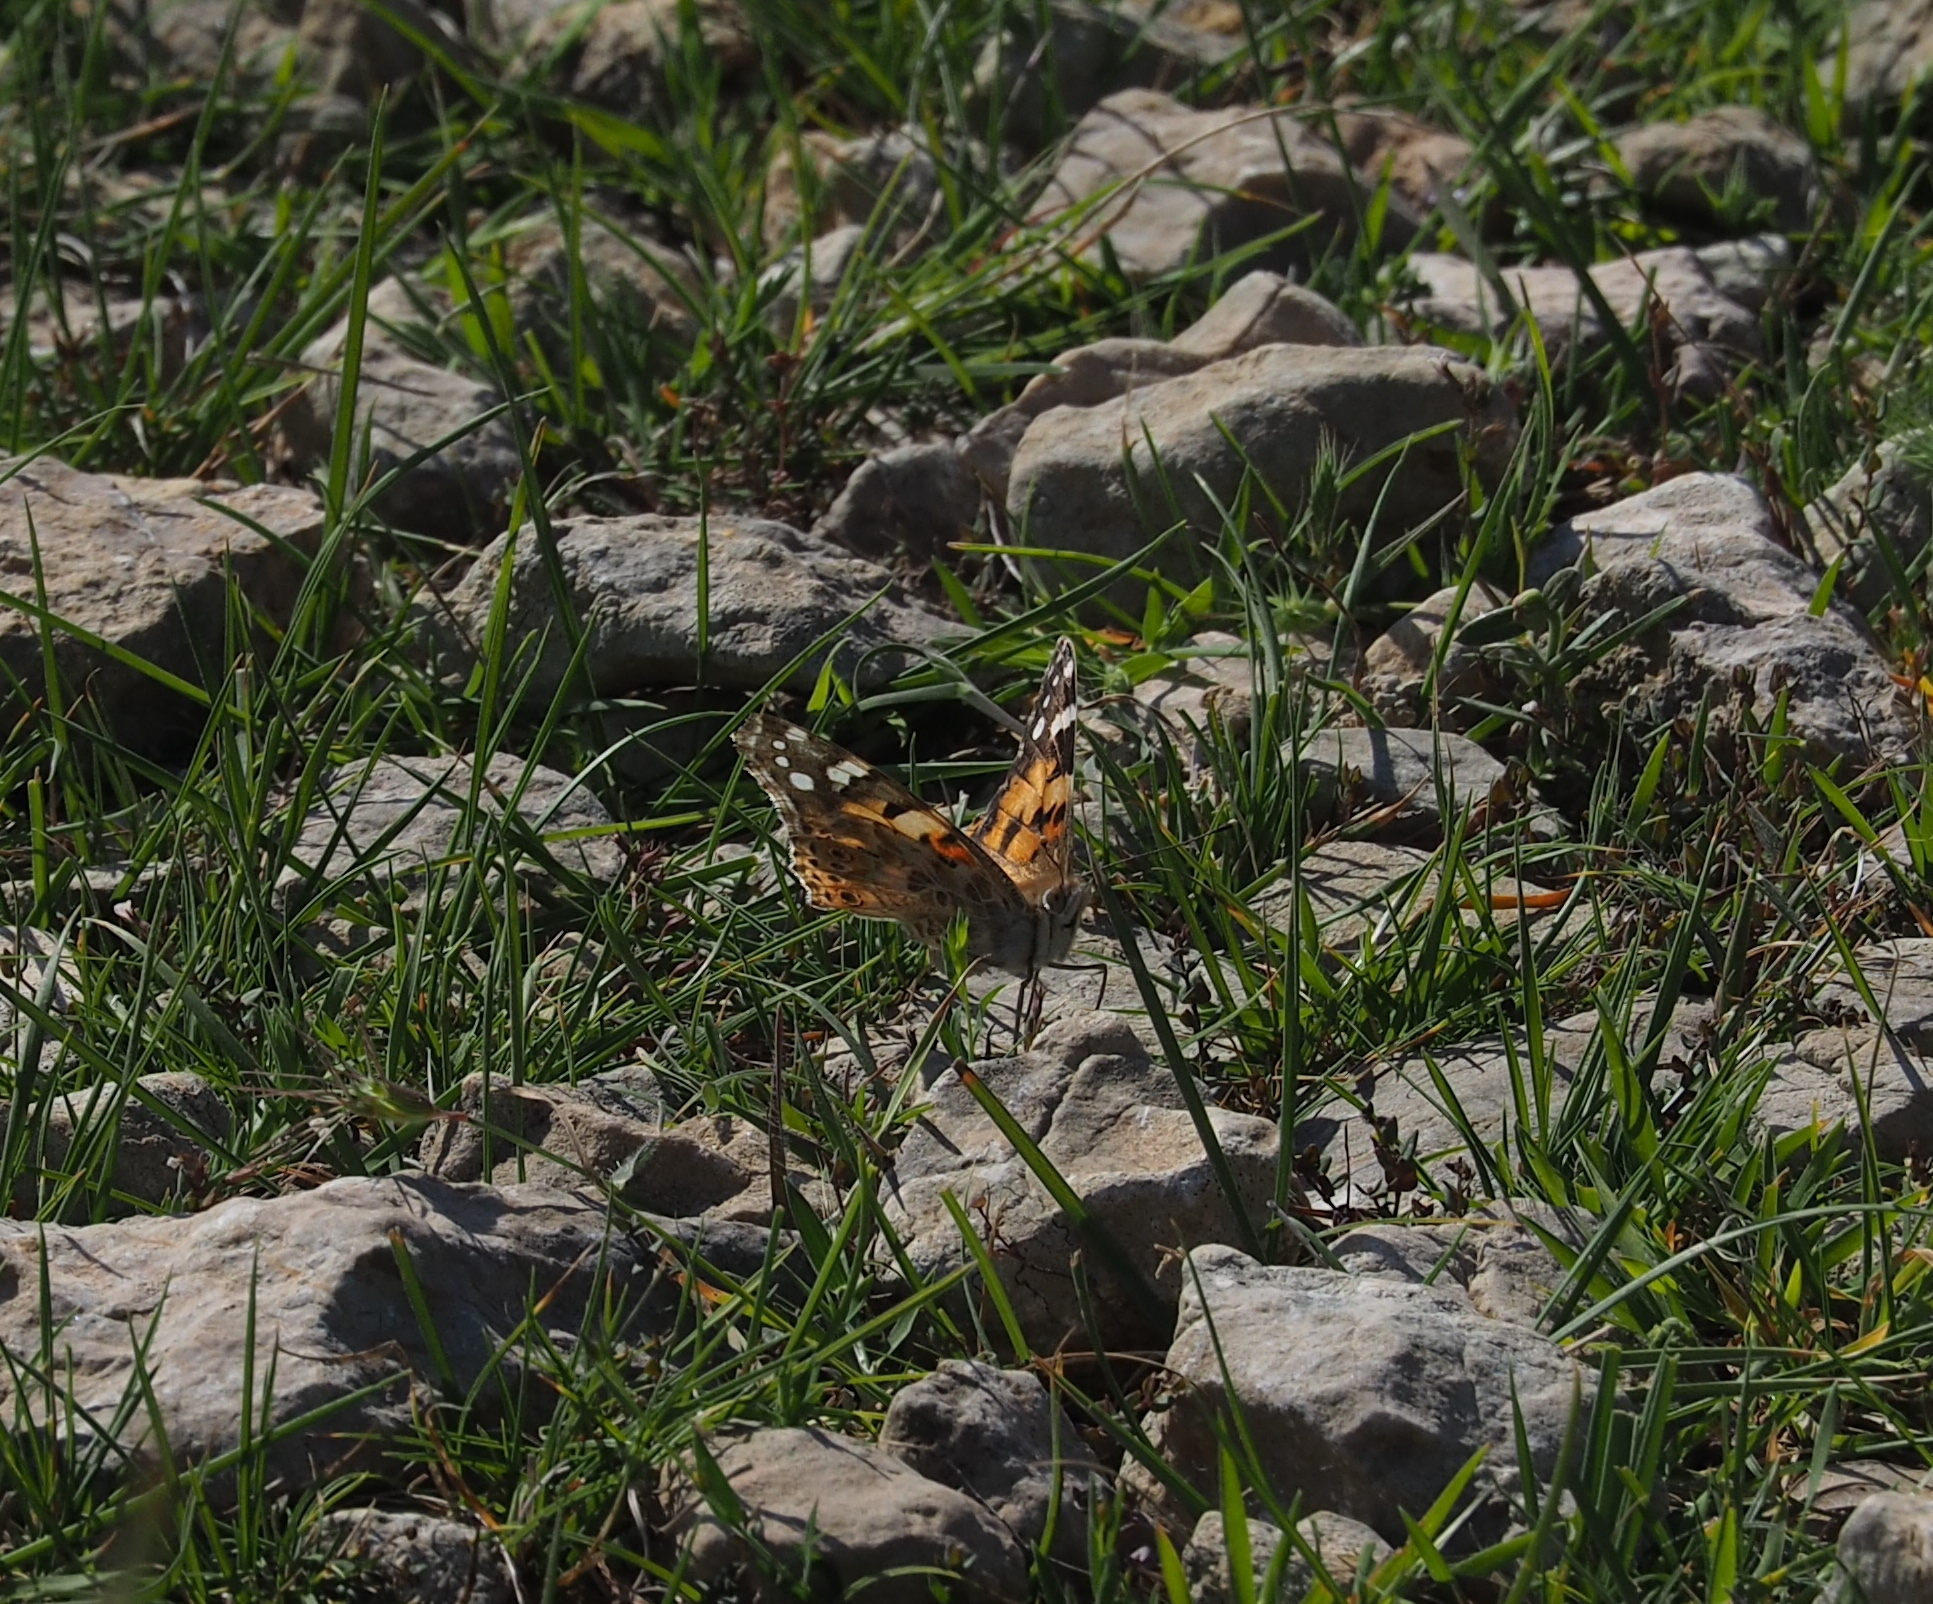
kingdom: Animalia
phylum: Arthropoda
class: Insecta
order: Lepidoptera
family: Nymphalidae
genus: Vanessa
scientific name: Vanessa cardui
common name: Painted lady
